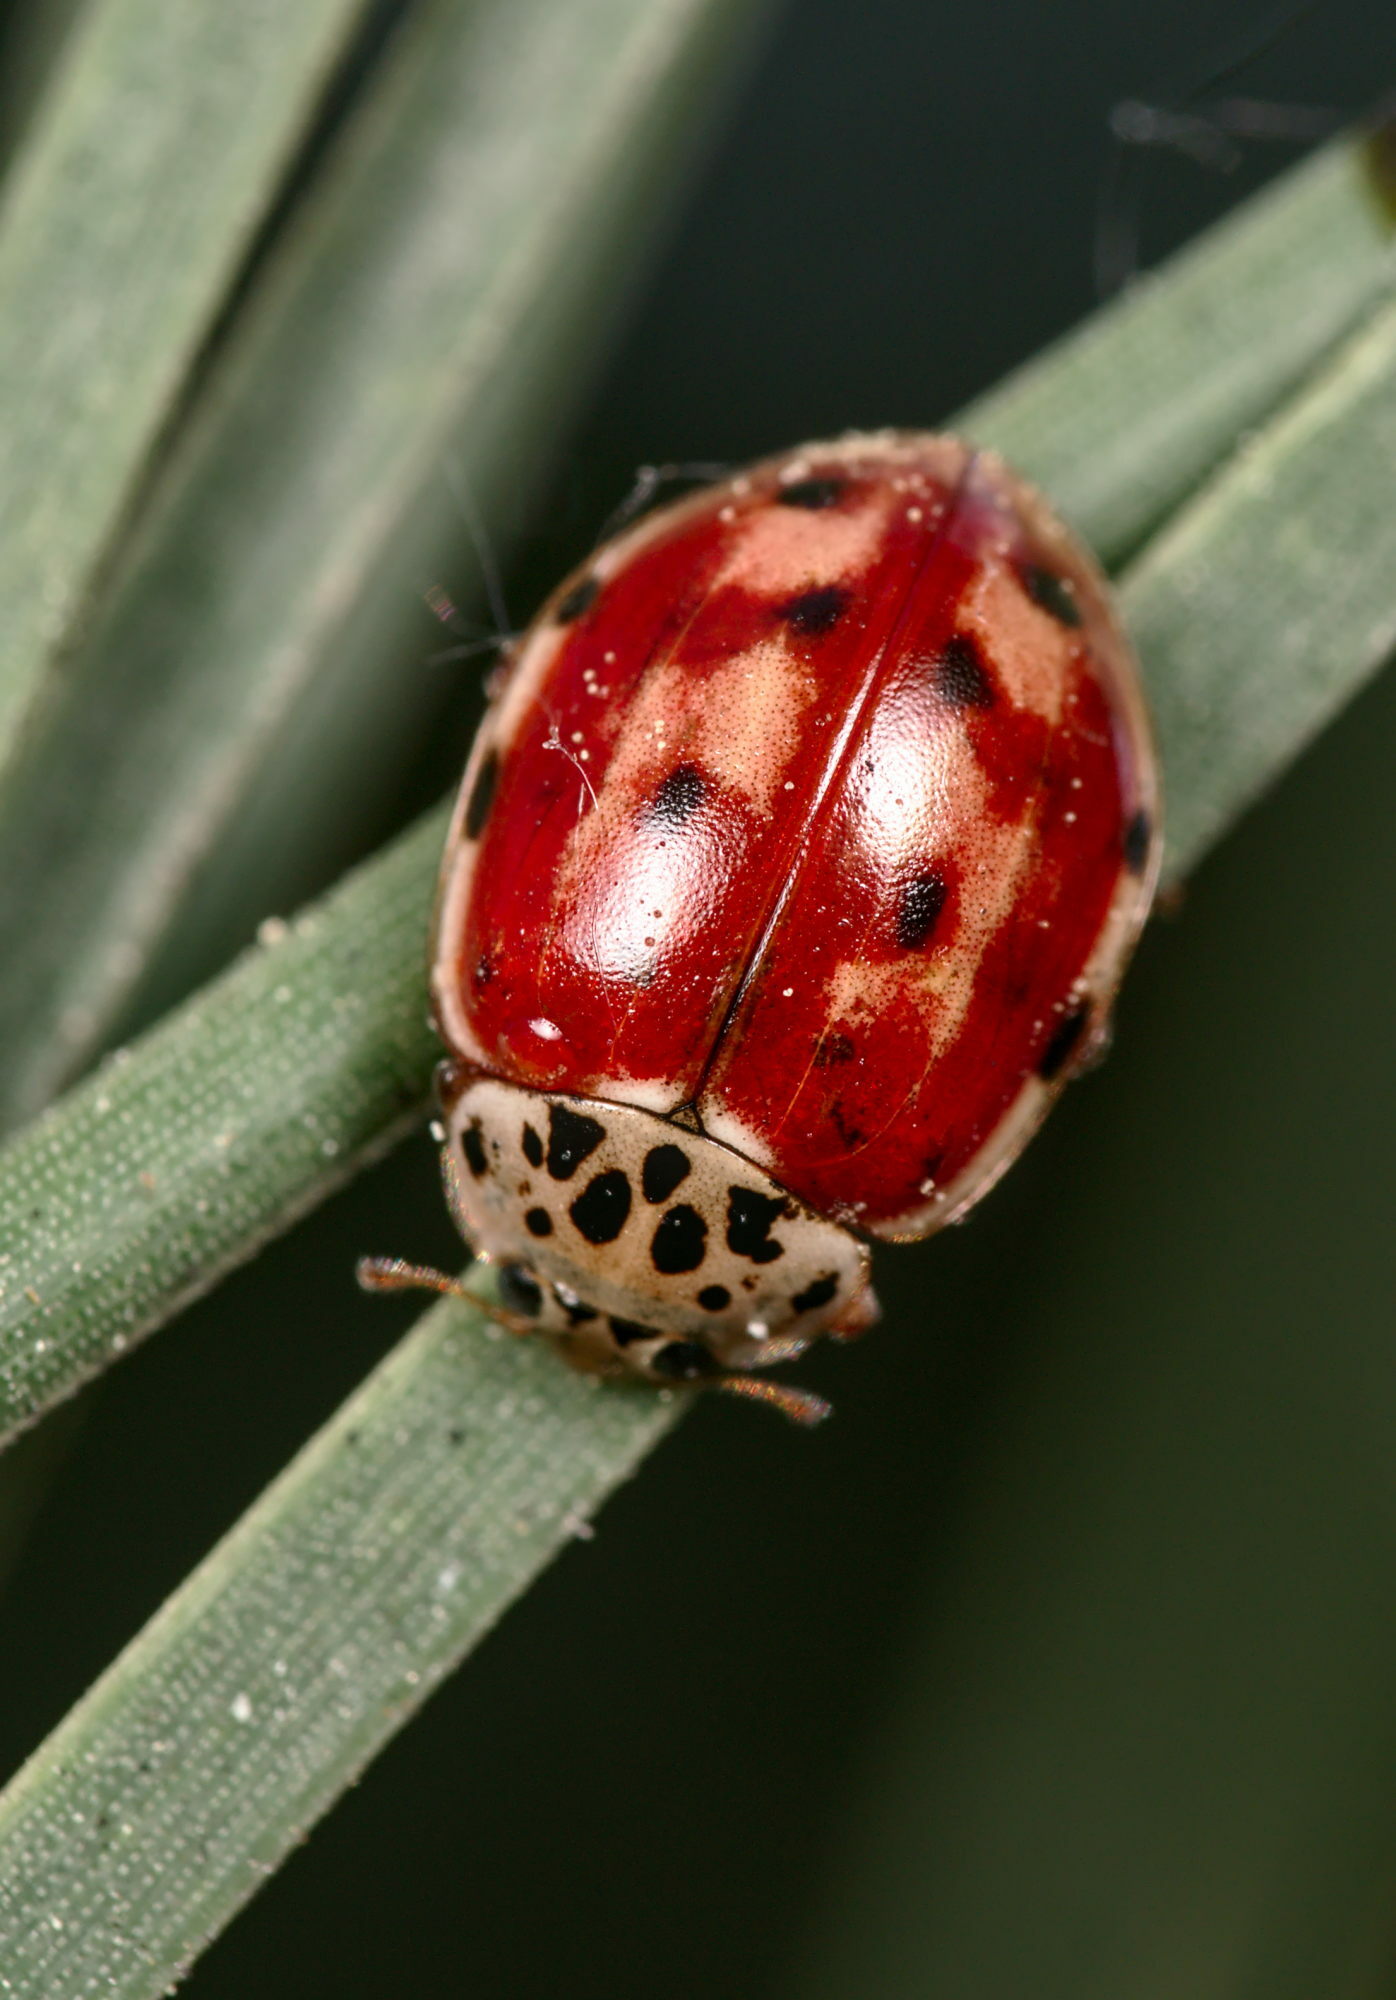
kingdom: Animalia
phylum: Arthropoda
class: Insecta
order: Coleoptera
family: Coccinellidae
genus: Harmonia
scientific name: Harmonia quadripunctata
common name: Cream-streaked ladybird
